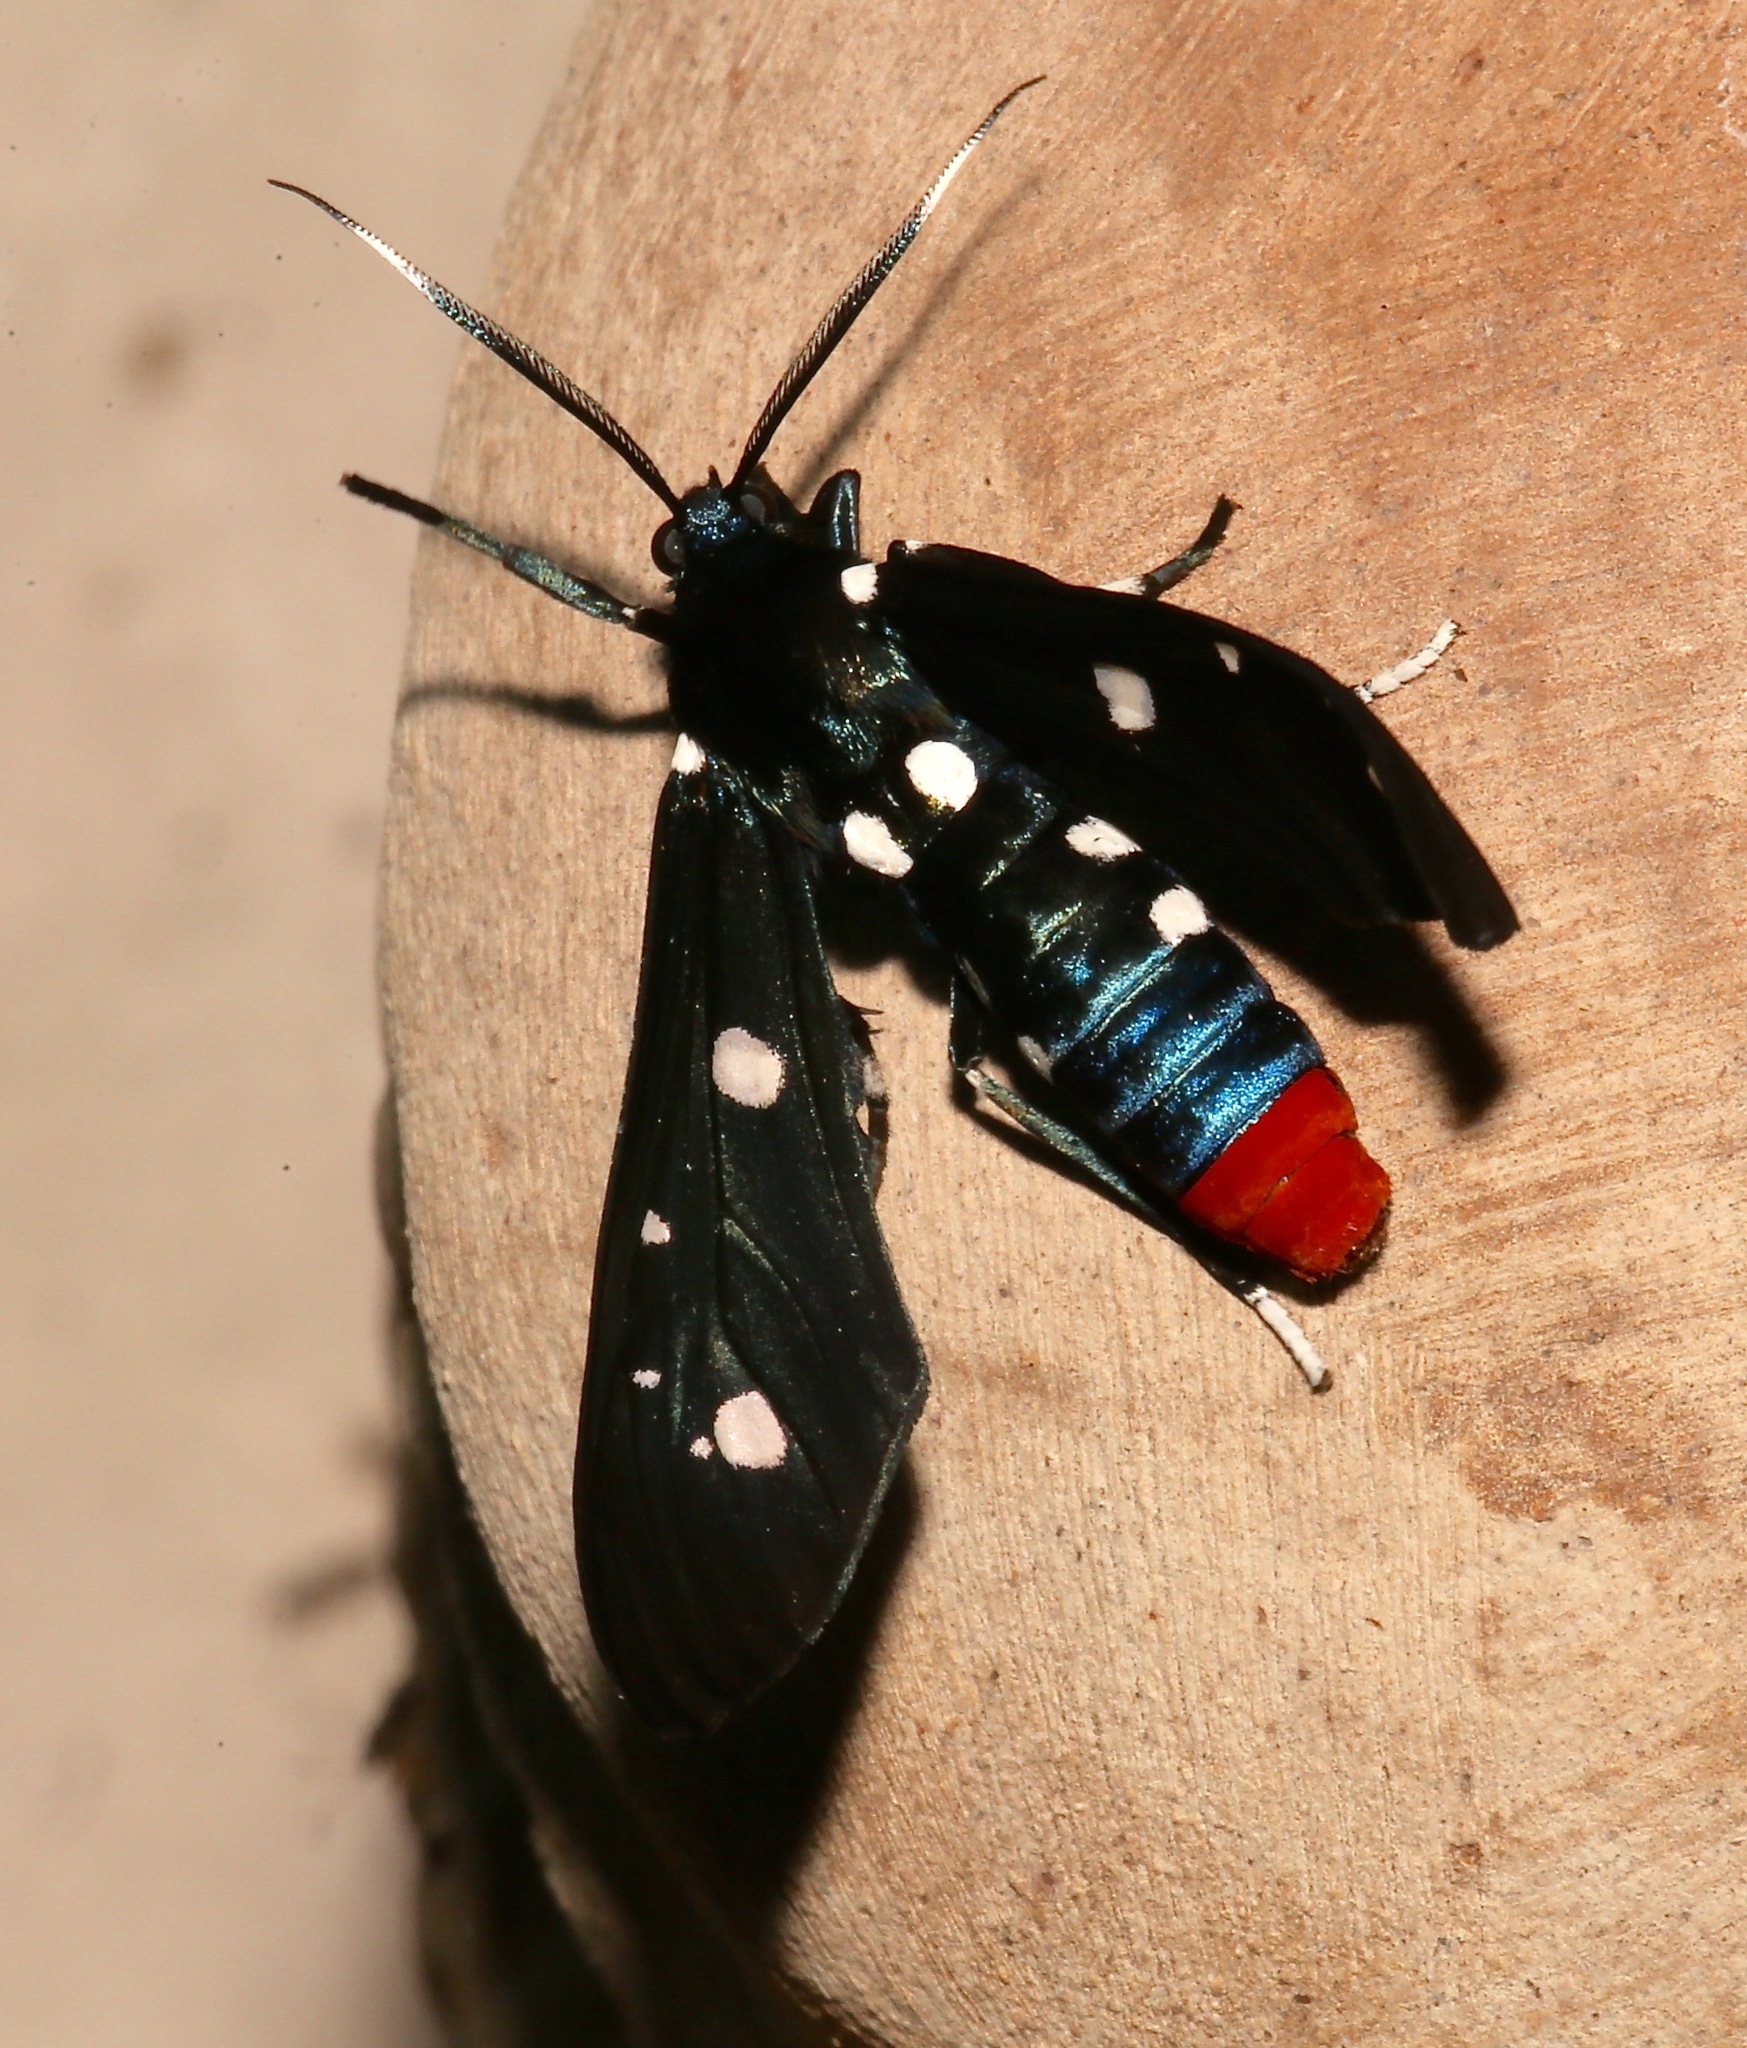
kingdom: Animalia
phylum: Arthropoda
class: Insecta
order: Lepidoptera
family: Erebidae
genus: Syntomeida
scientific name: Syntomeida epilais
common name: Polka-dot wasp moth
